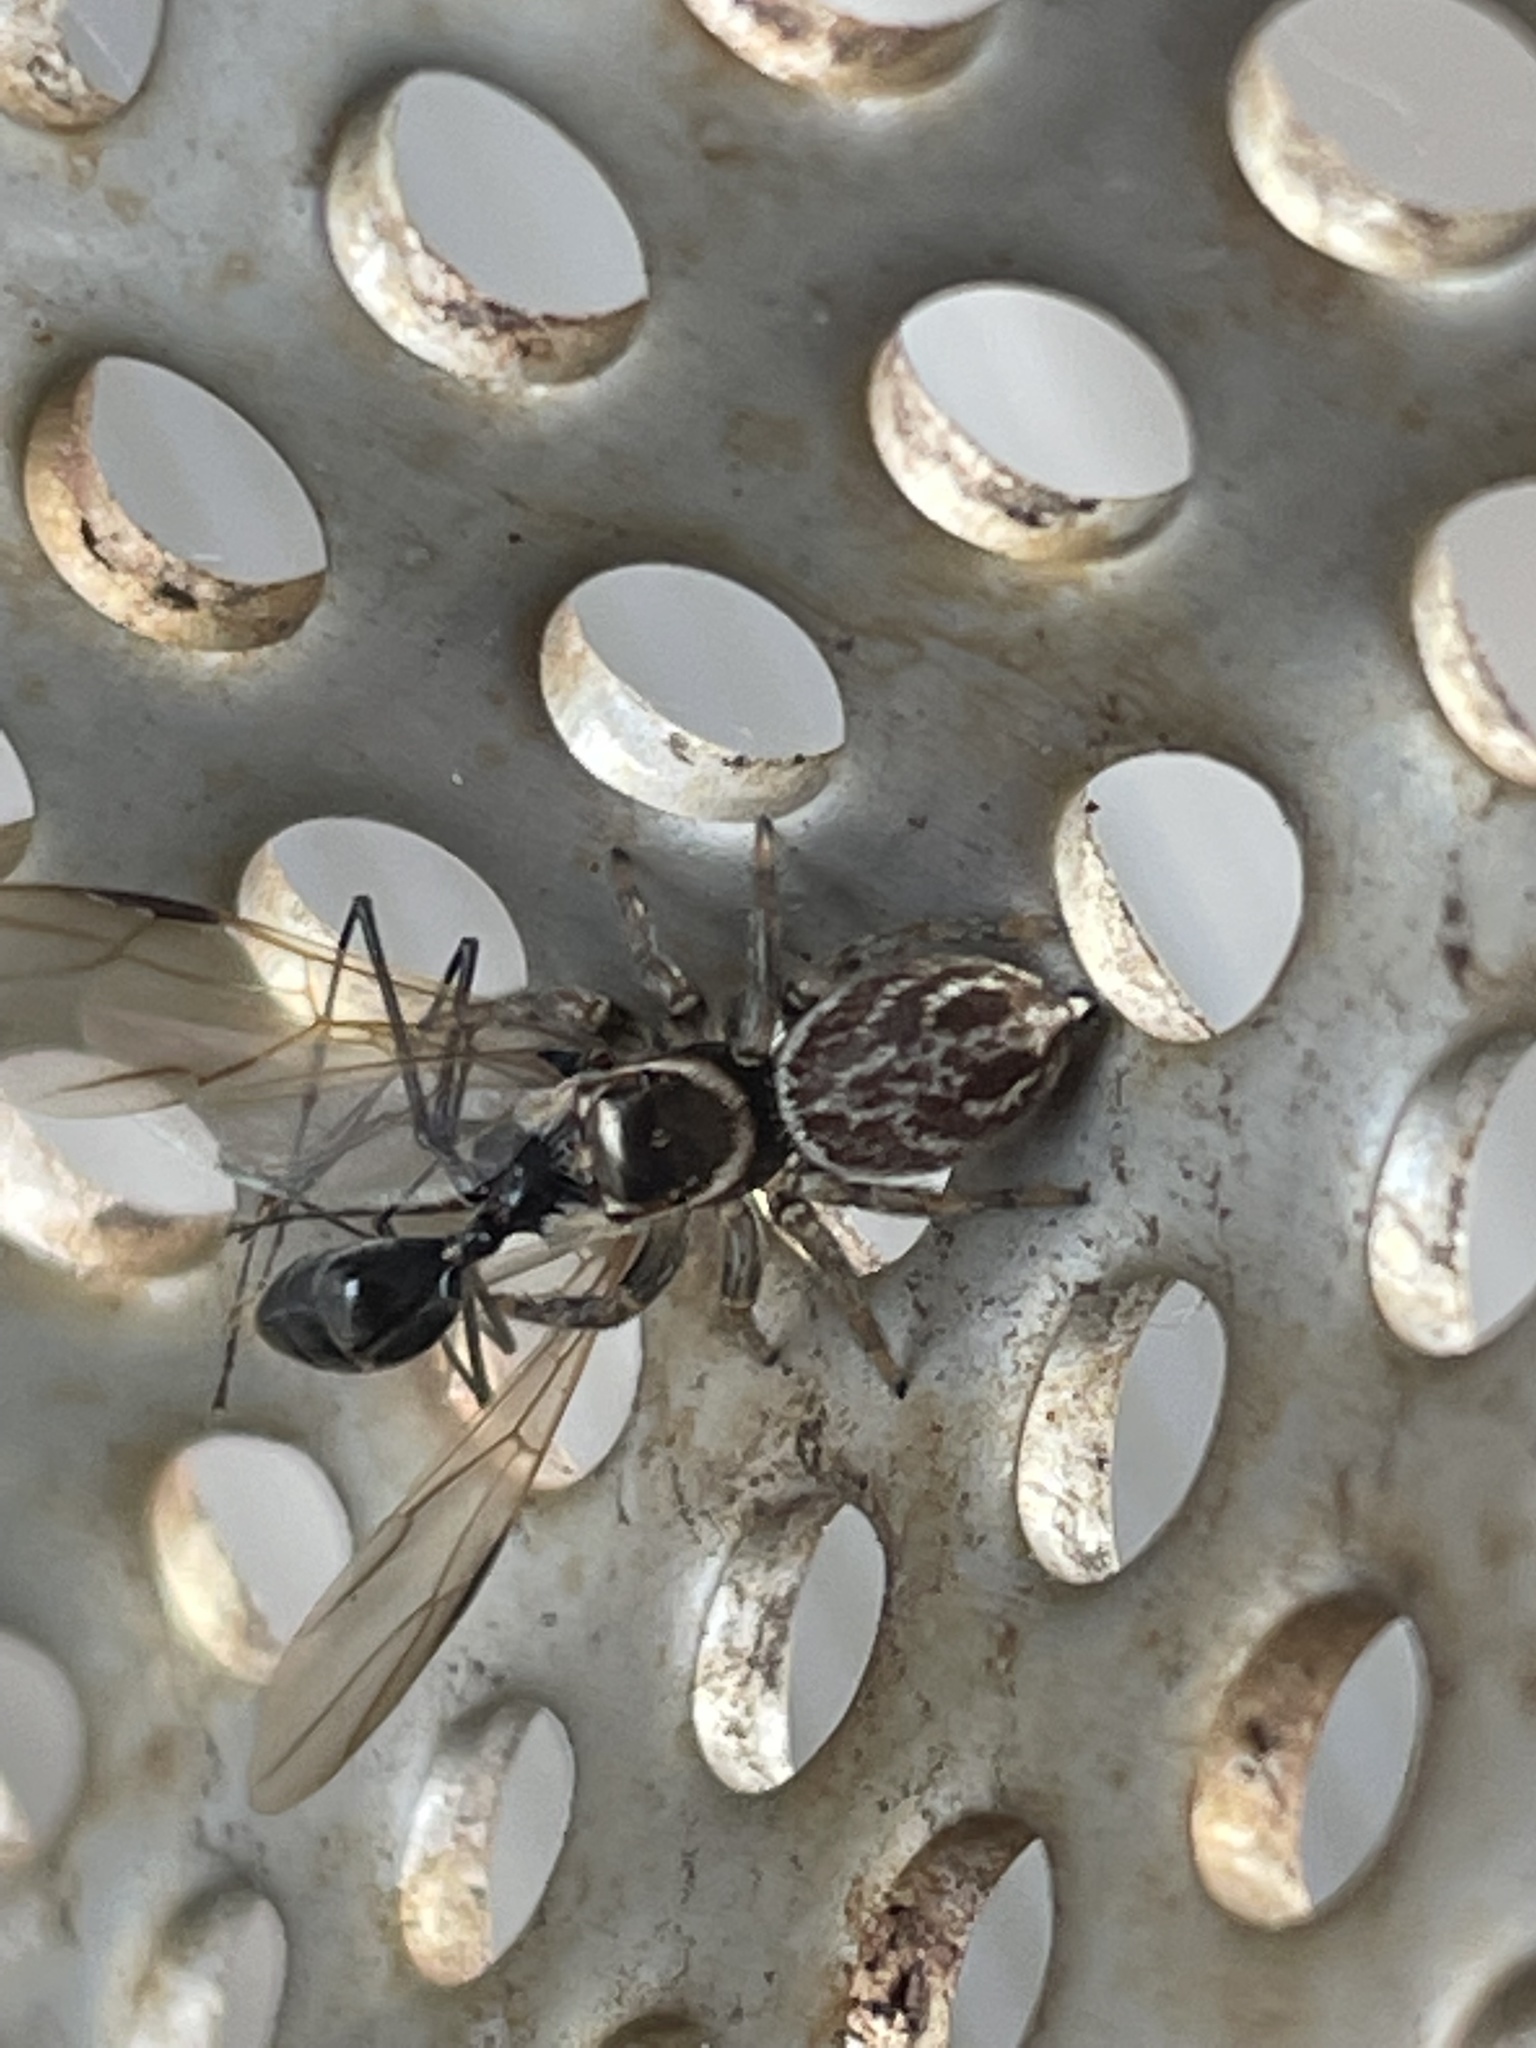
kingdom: Animalia
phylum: Arthropoda
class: Arachnida
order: Araneae
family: Salticidae
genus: Maratus
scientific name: Maratus griseus
